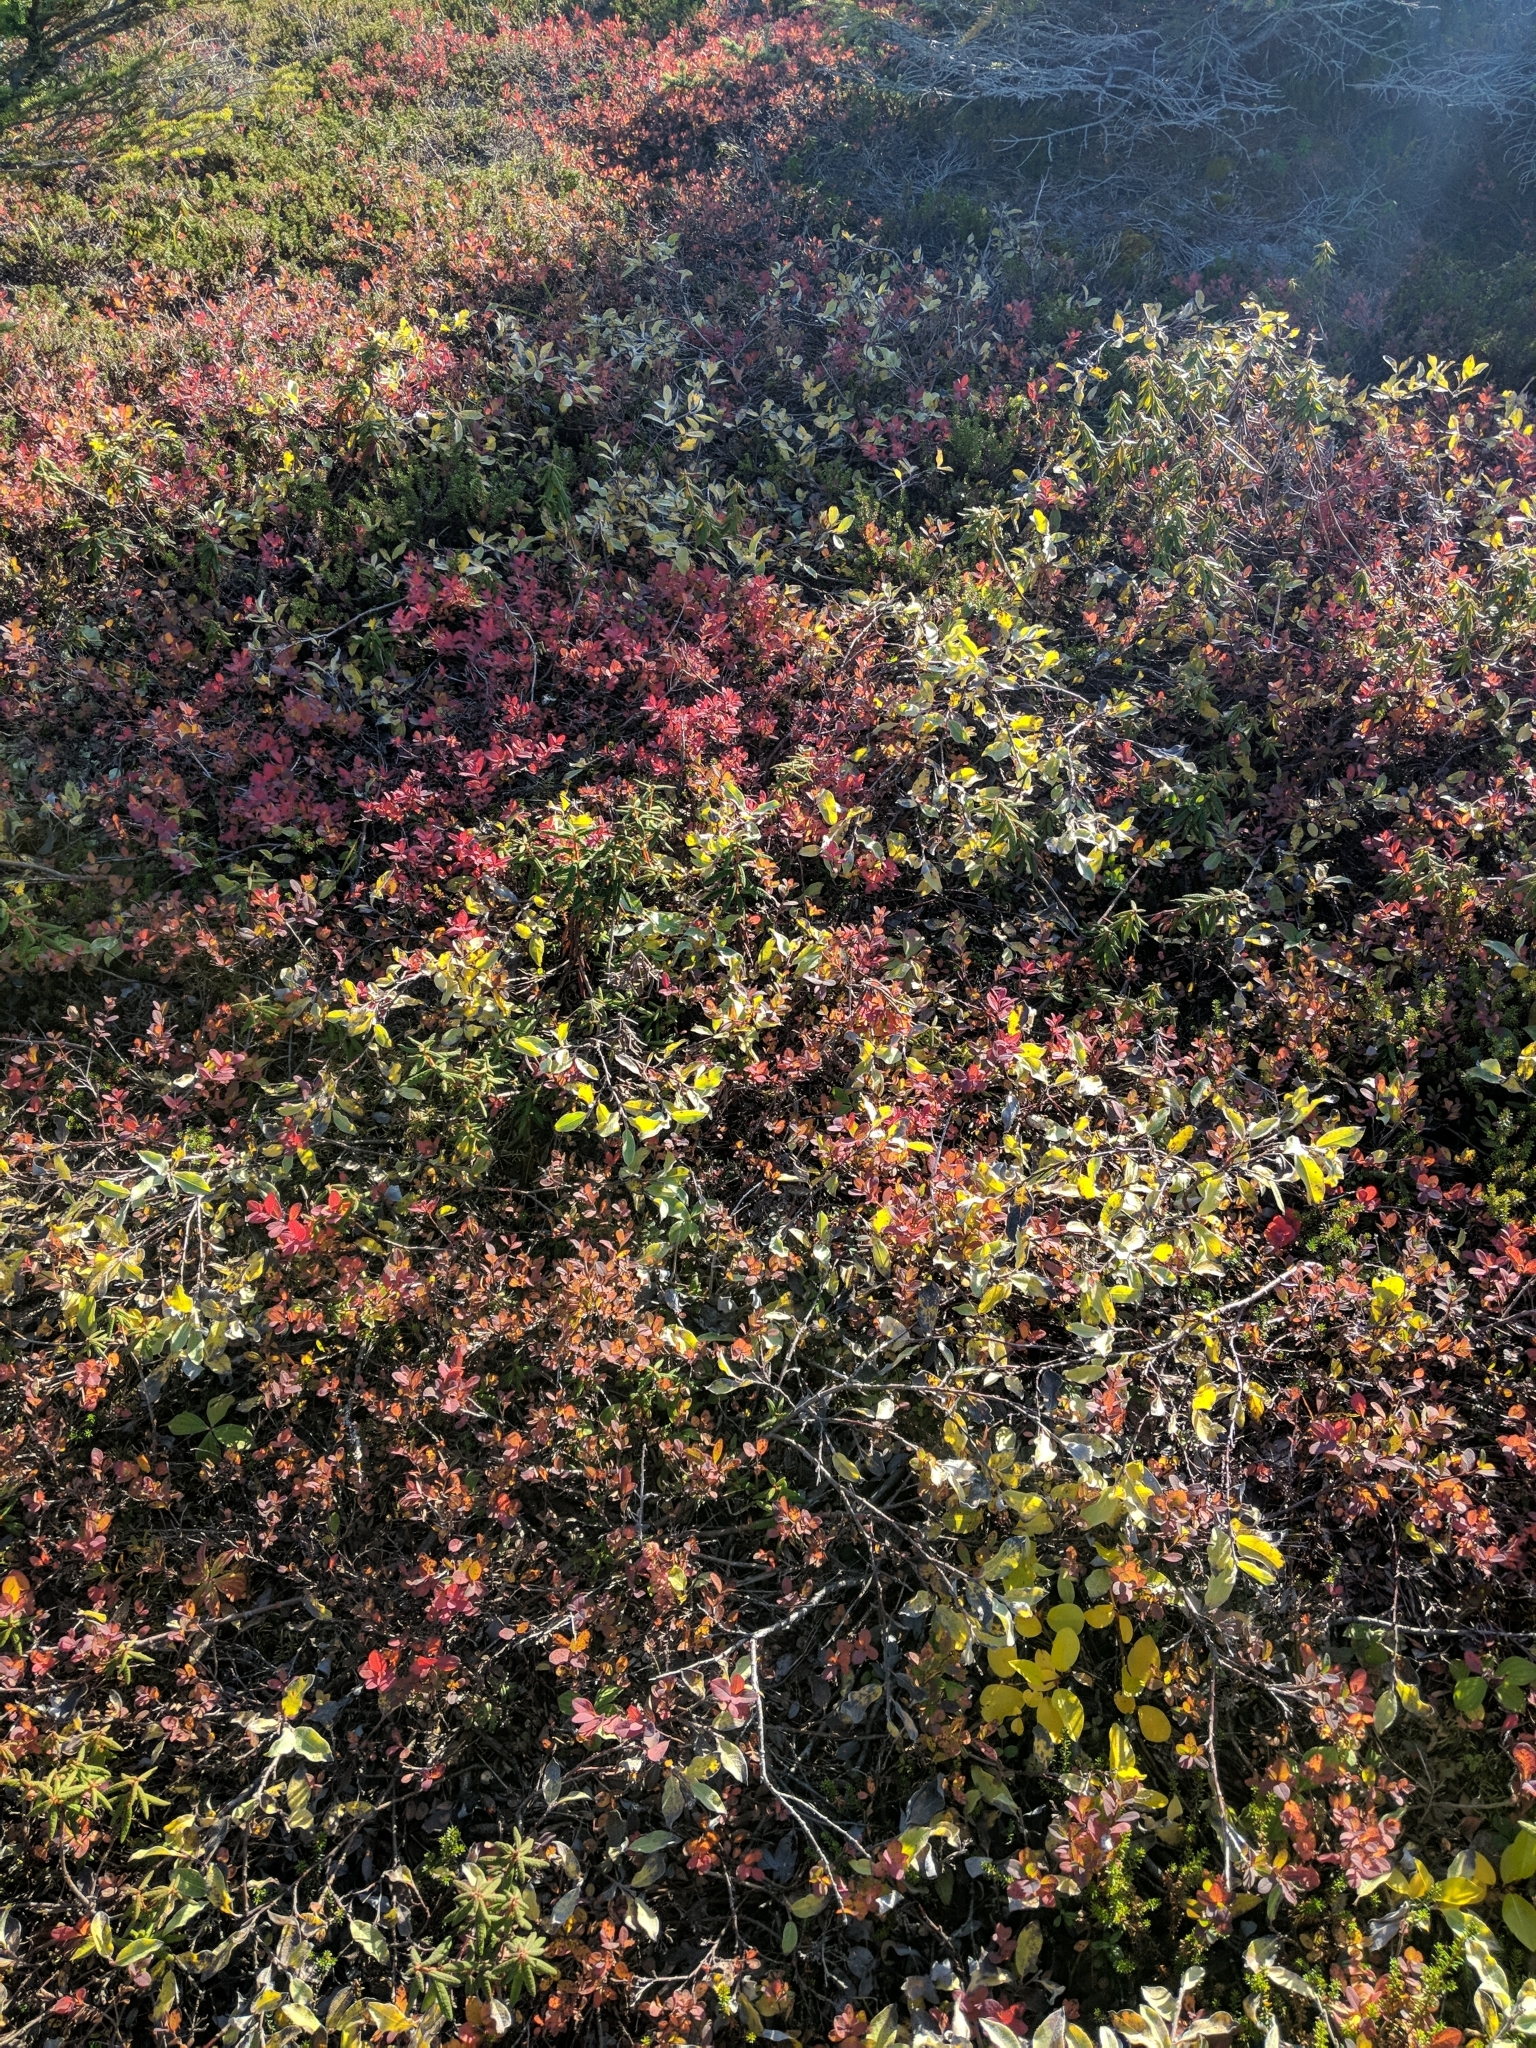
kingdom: Plantae
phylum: Tracheophyta
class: Magnoliopsida
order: Malpighiales
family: Salicaceae
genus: Salix
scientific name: Salix glauca
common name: Glaucous willow
